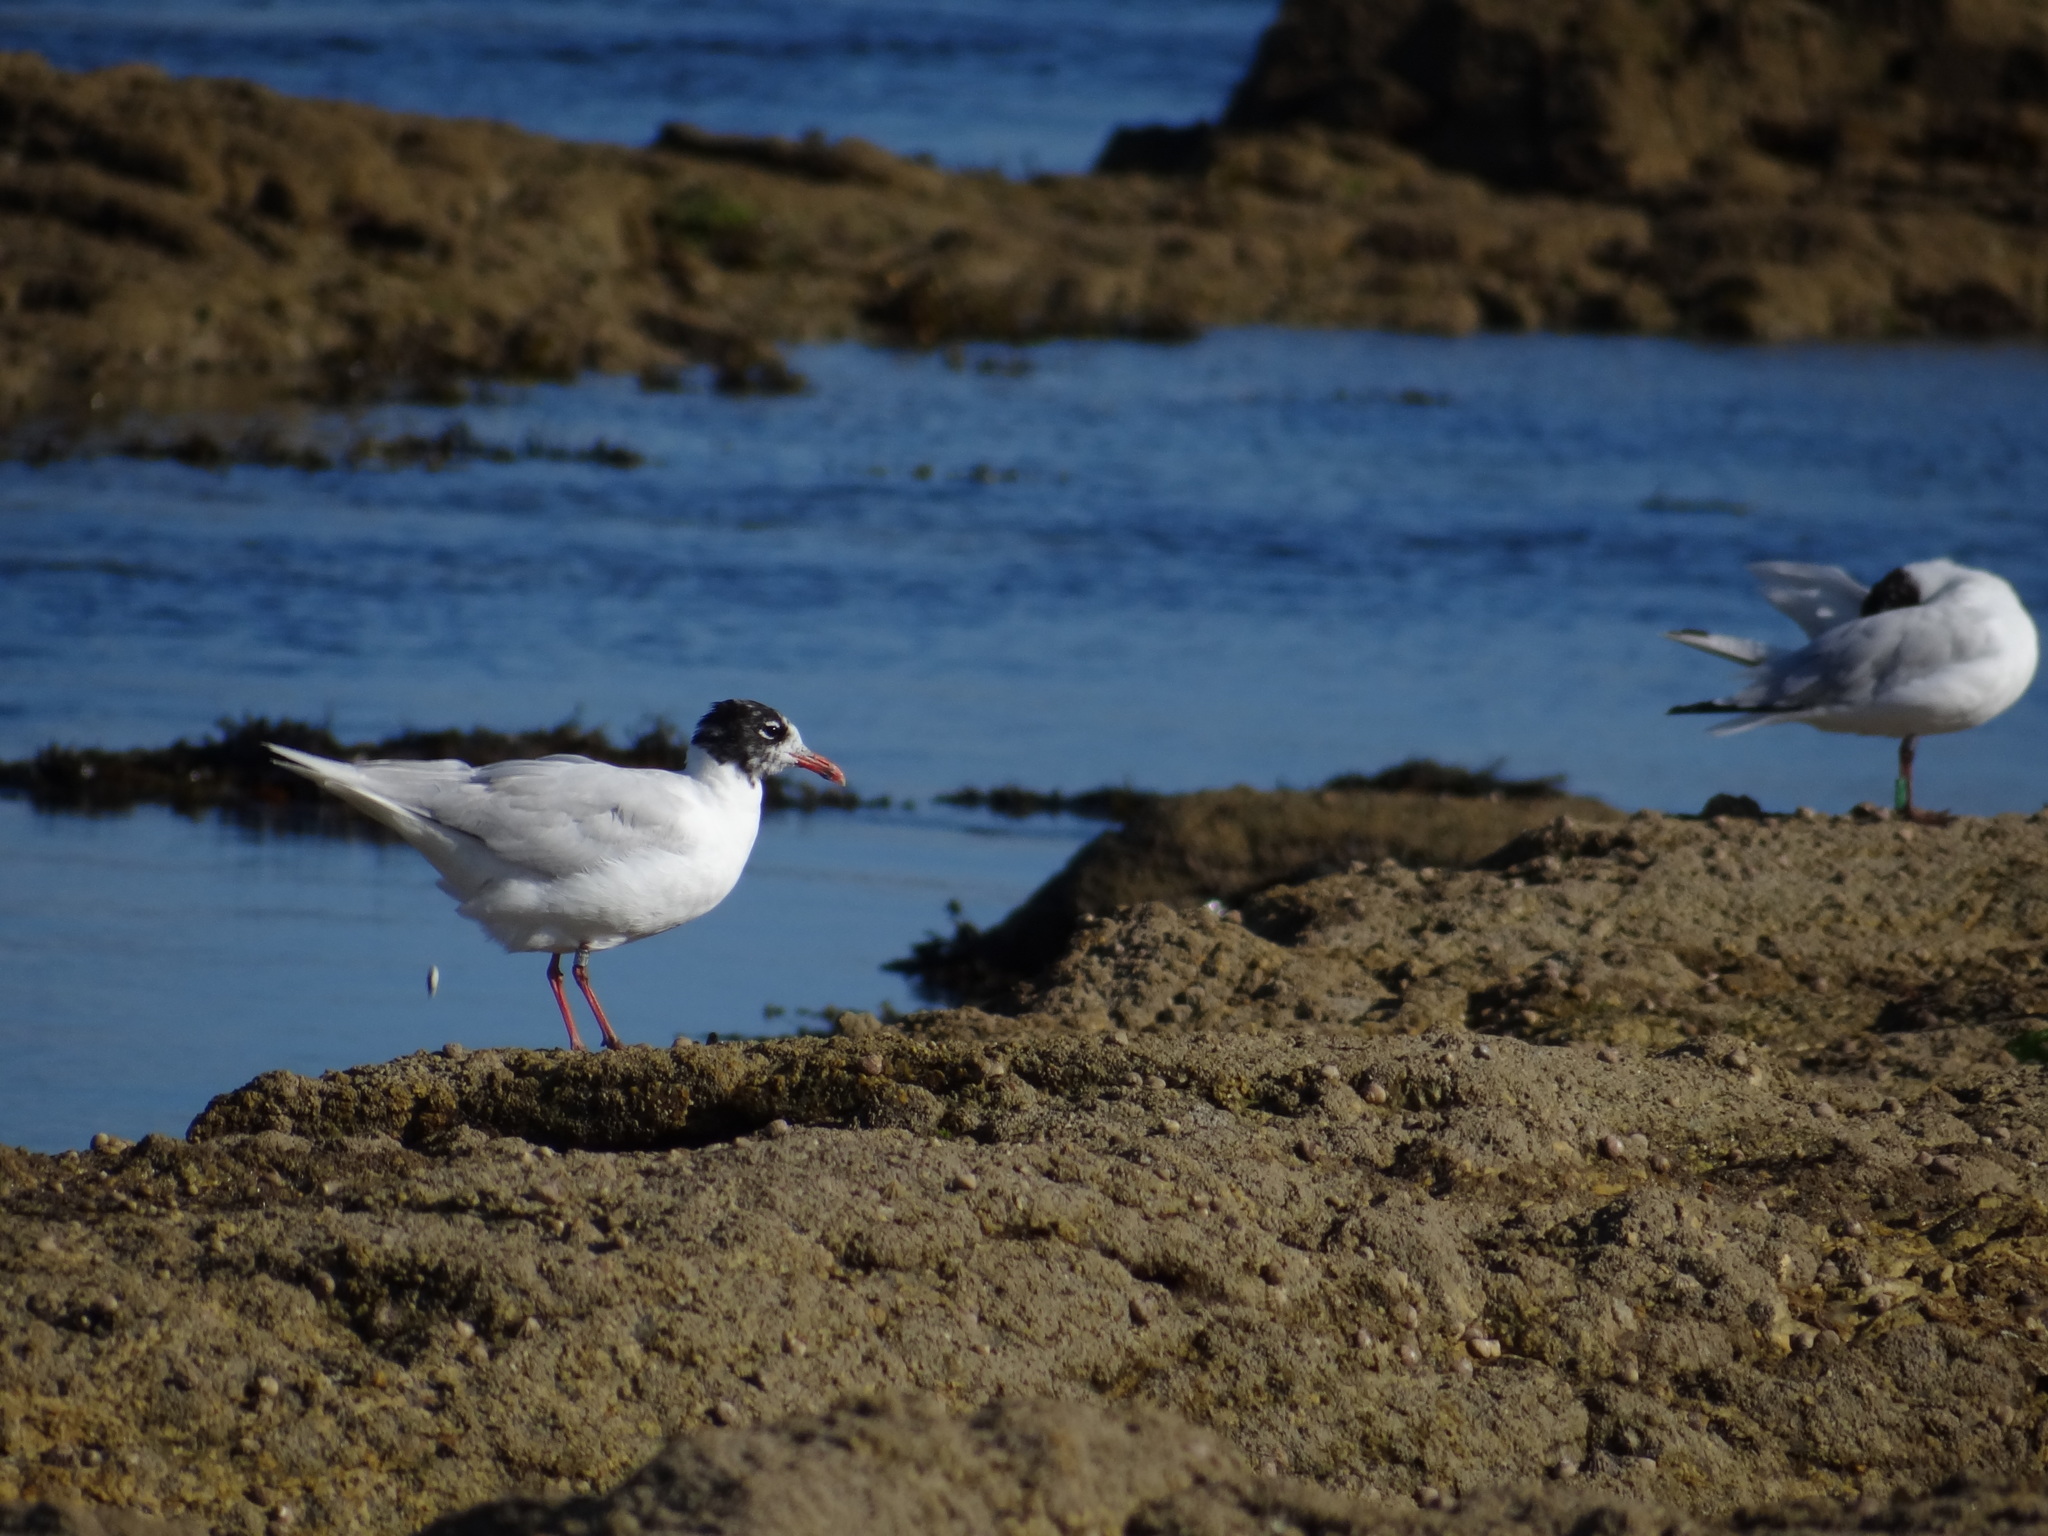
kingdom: Animalia
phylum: Chordata
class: Aves
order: Charadriiformes
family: Laridae
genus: Ichthyaetus
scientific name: Ichthyaetus melanocephalus
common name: Mediterranean gull
